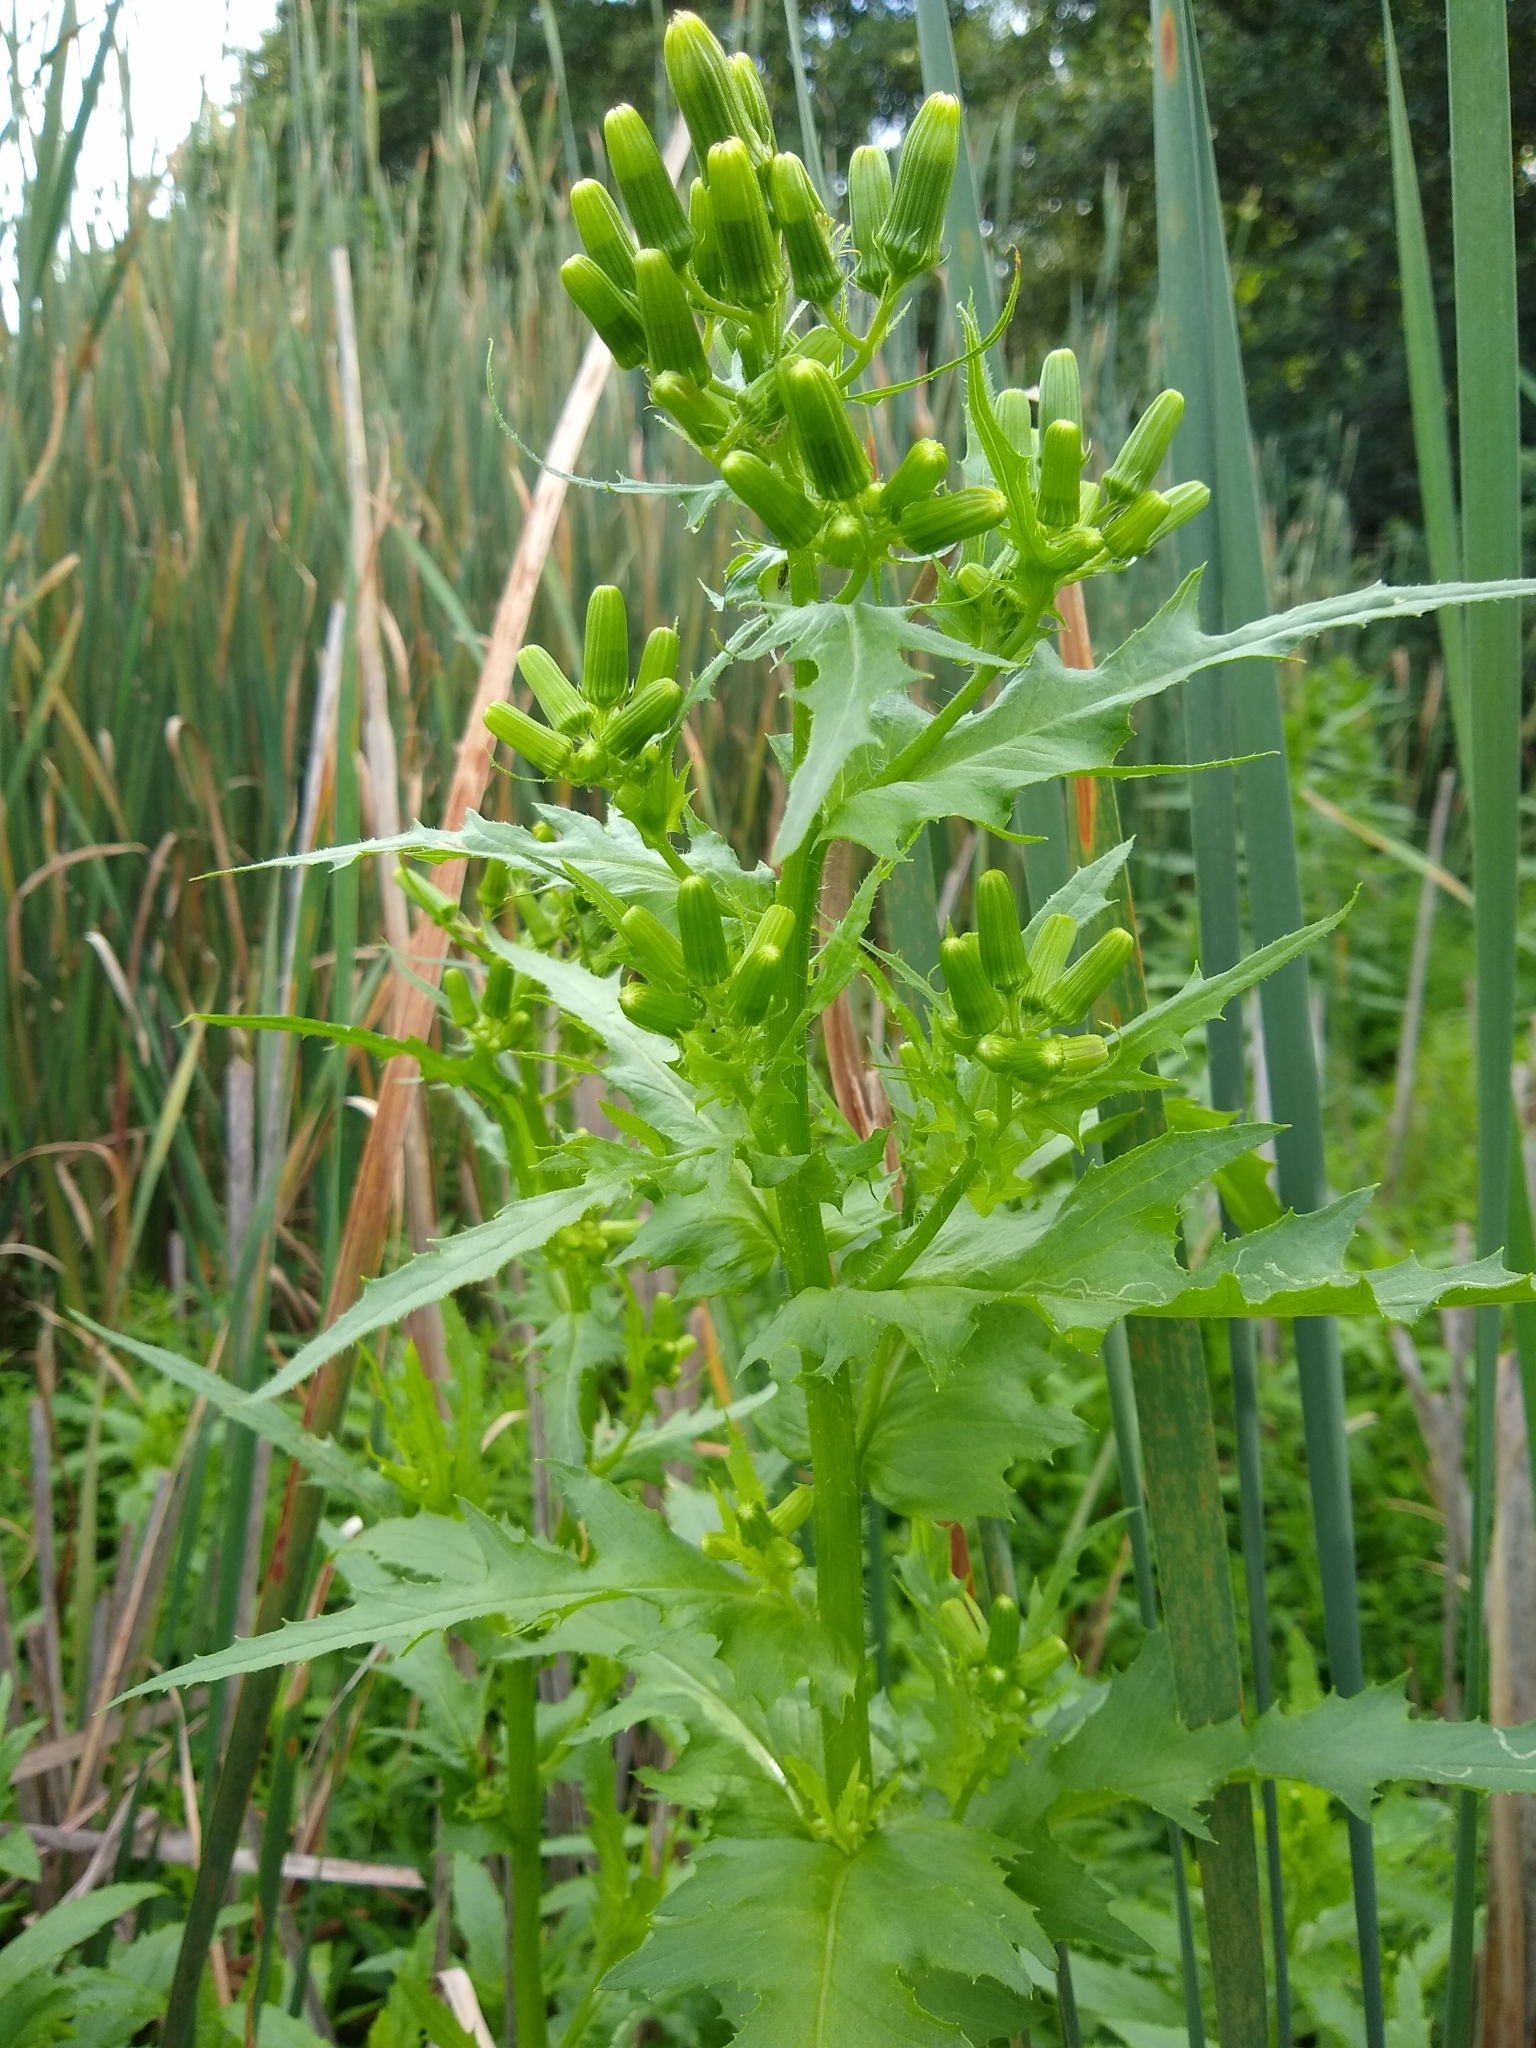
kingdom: Plantae
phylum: Tracheophyta
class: Magnoliopsida
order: Asterales
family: Asteraceae
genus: Erechtites
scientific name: Erechtites hieraciifolius
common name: American burnweed
